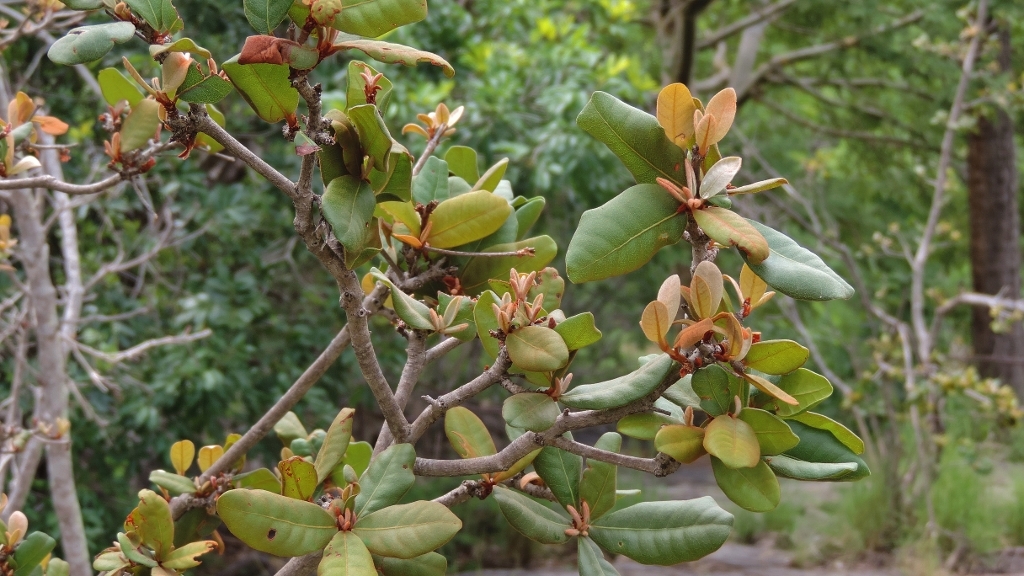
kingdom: Plantae
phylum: Tracheophyta
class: Magnoliopsida
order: Ericales
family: Sapotaceae
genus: Vitellariopsis
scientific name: Vitellariopsis ferruginea
